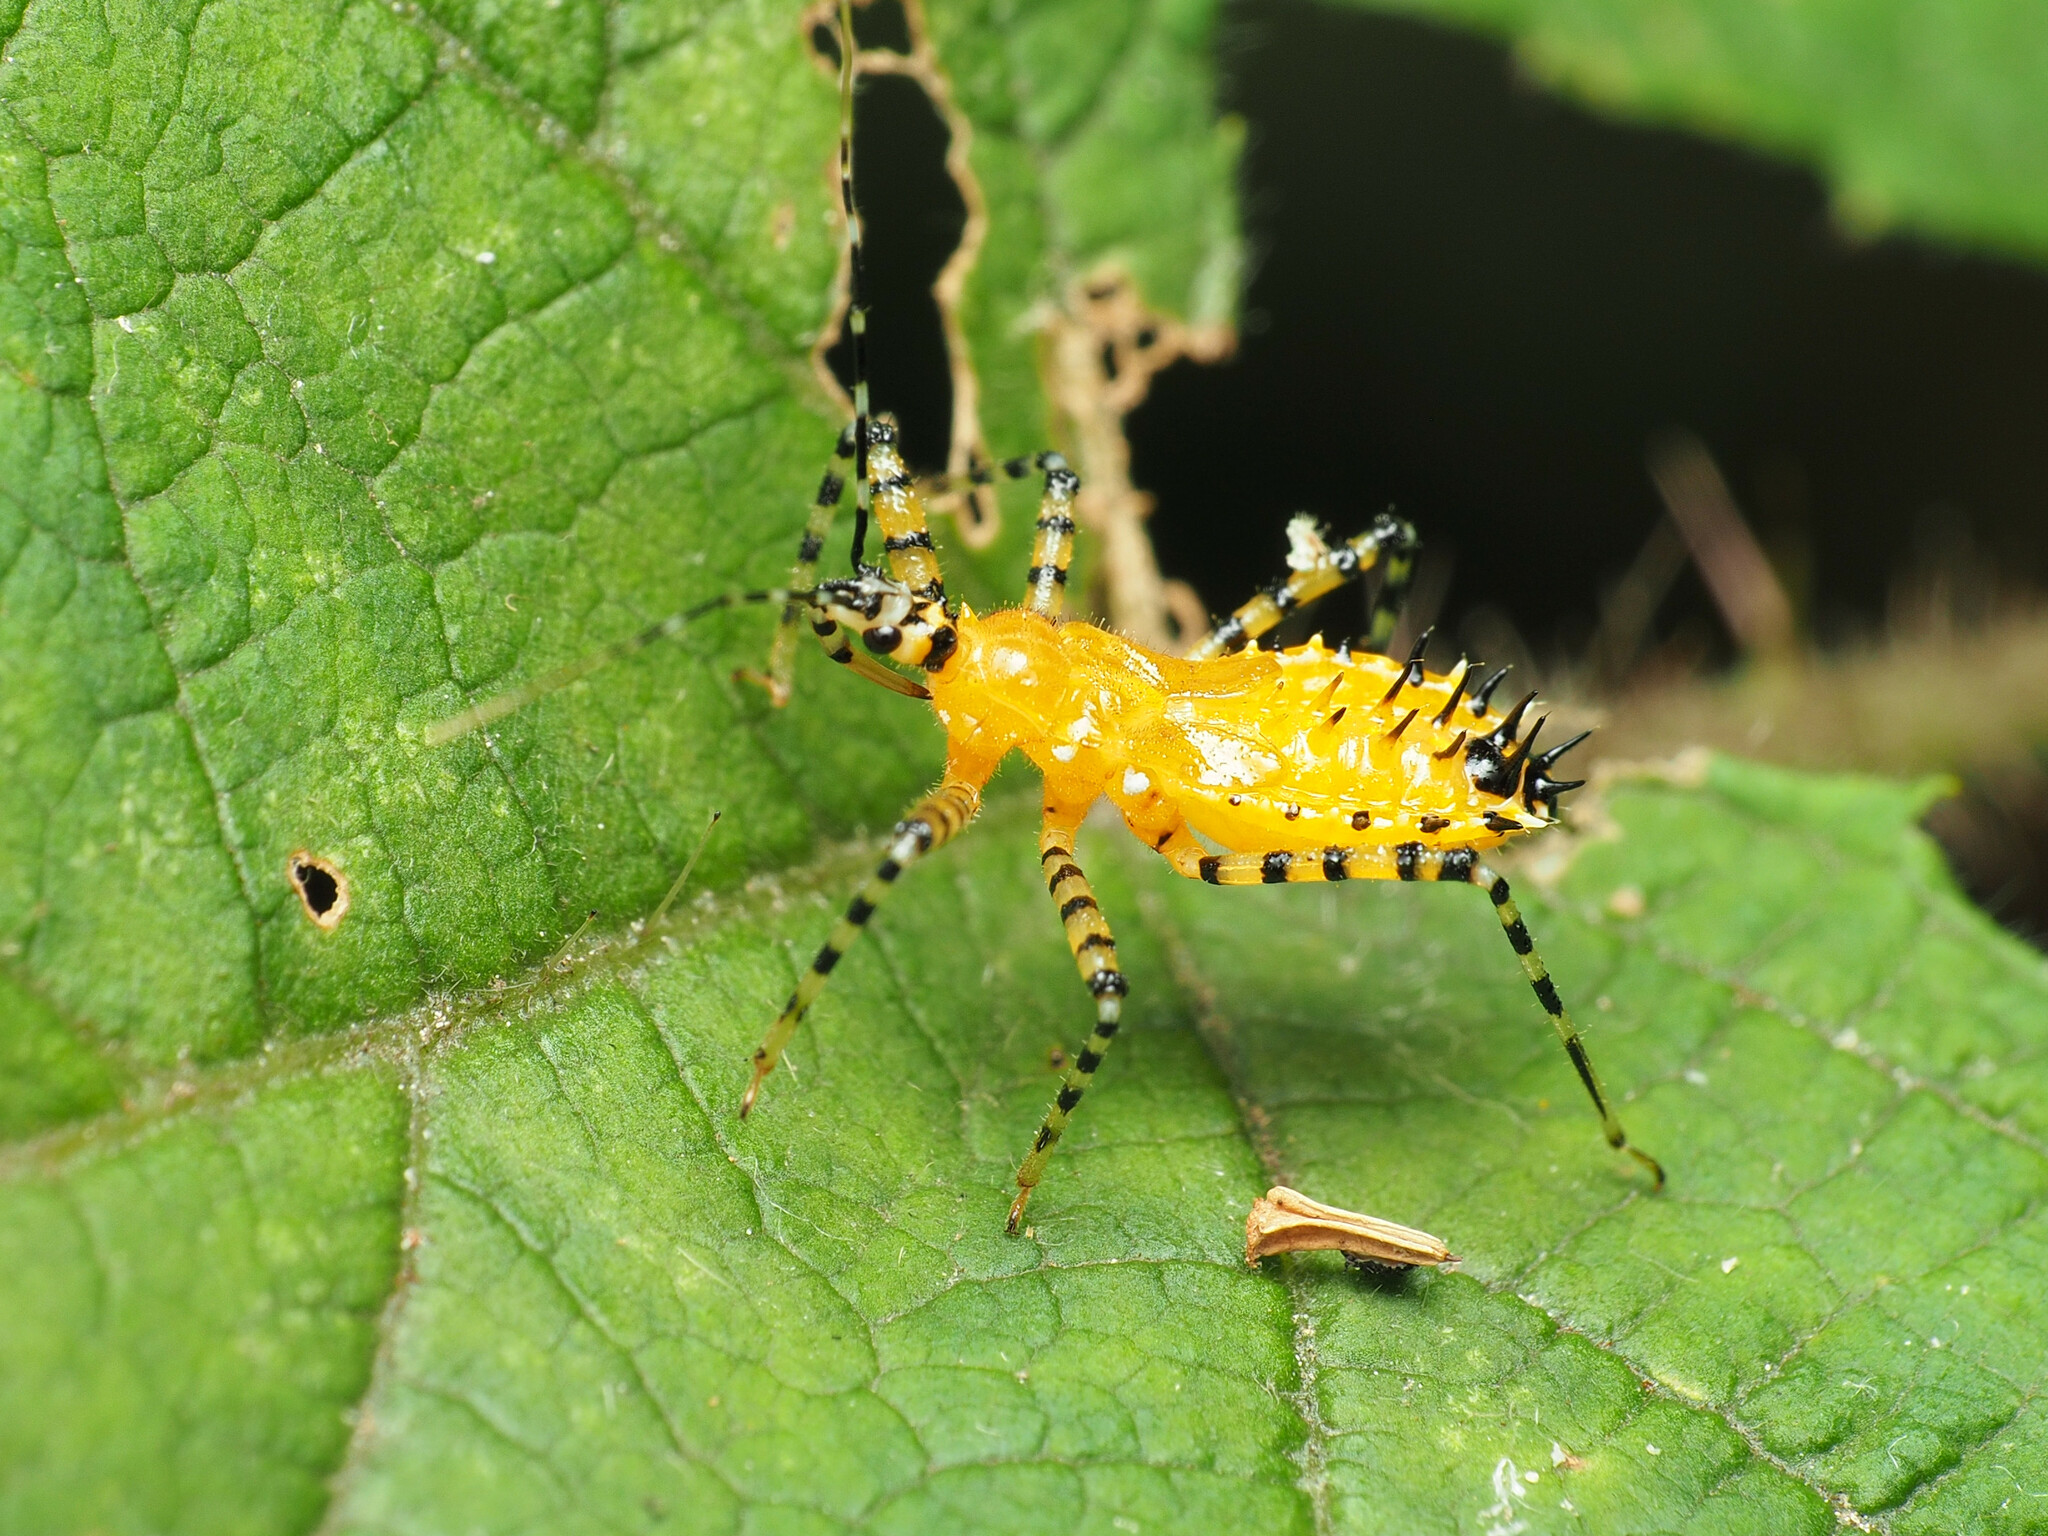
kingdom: Animalia
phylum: Arthropoda
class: Insecta
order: Hemiptera
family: Reduviidae
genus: Pselliopus
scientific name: Pselliopus barberi
